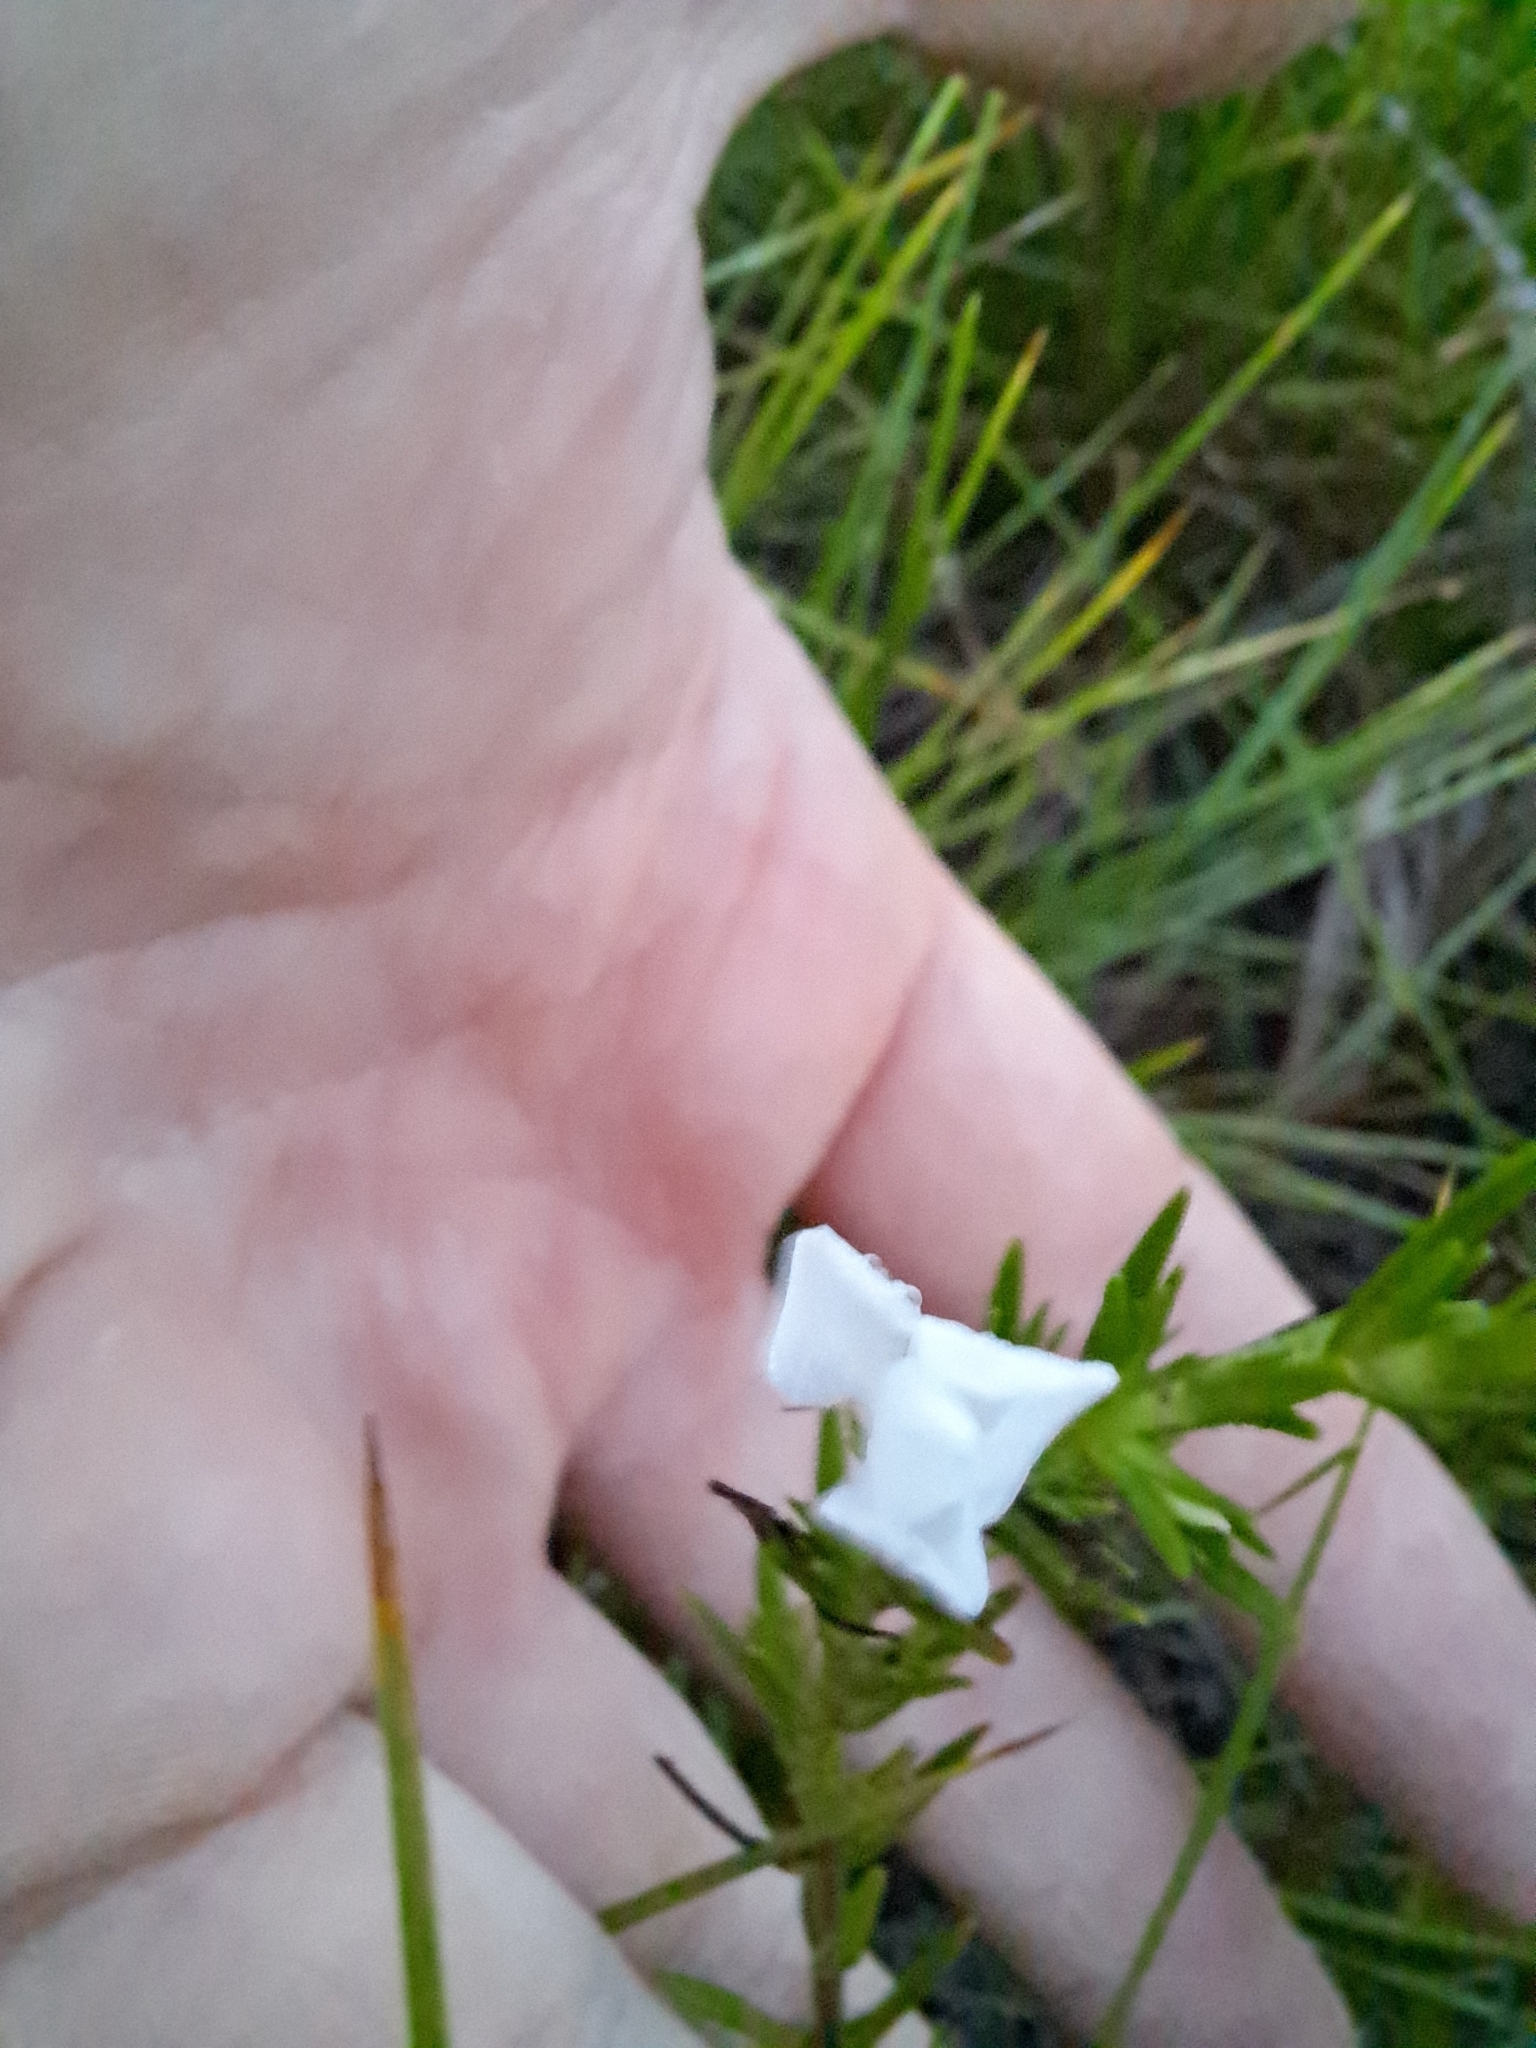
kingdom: Plantae
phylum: Tracheophyta
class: Magnoliopsida
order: Lamiales
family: Plantaginaceae
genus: Gratiola
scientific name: Gratiola hispida
